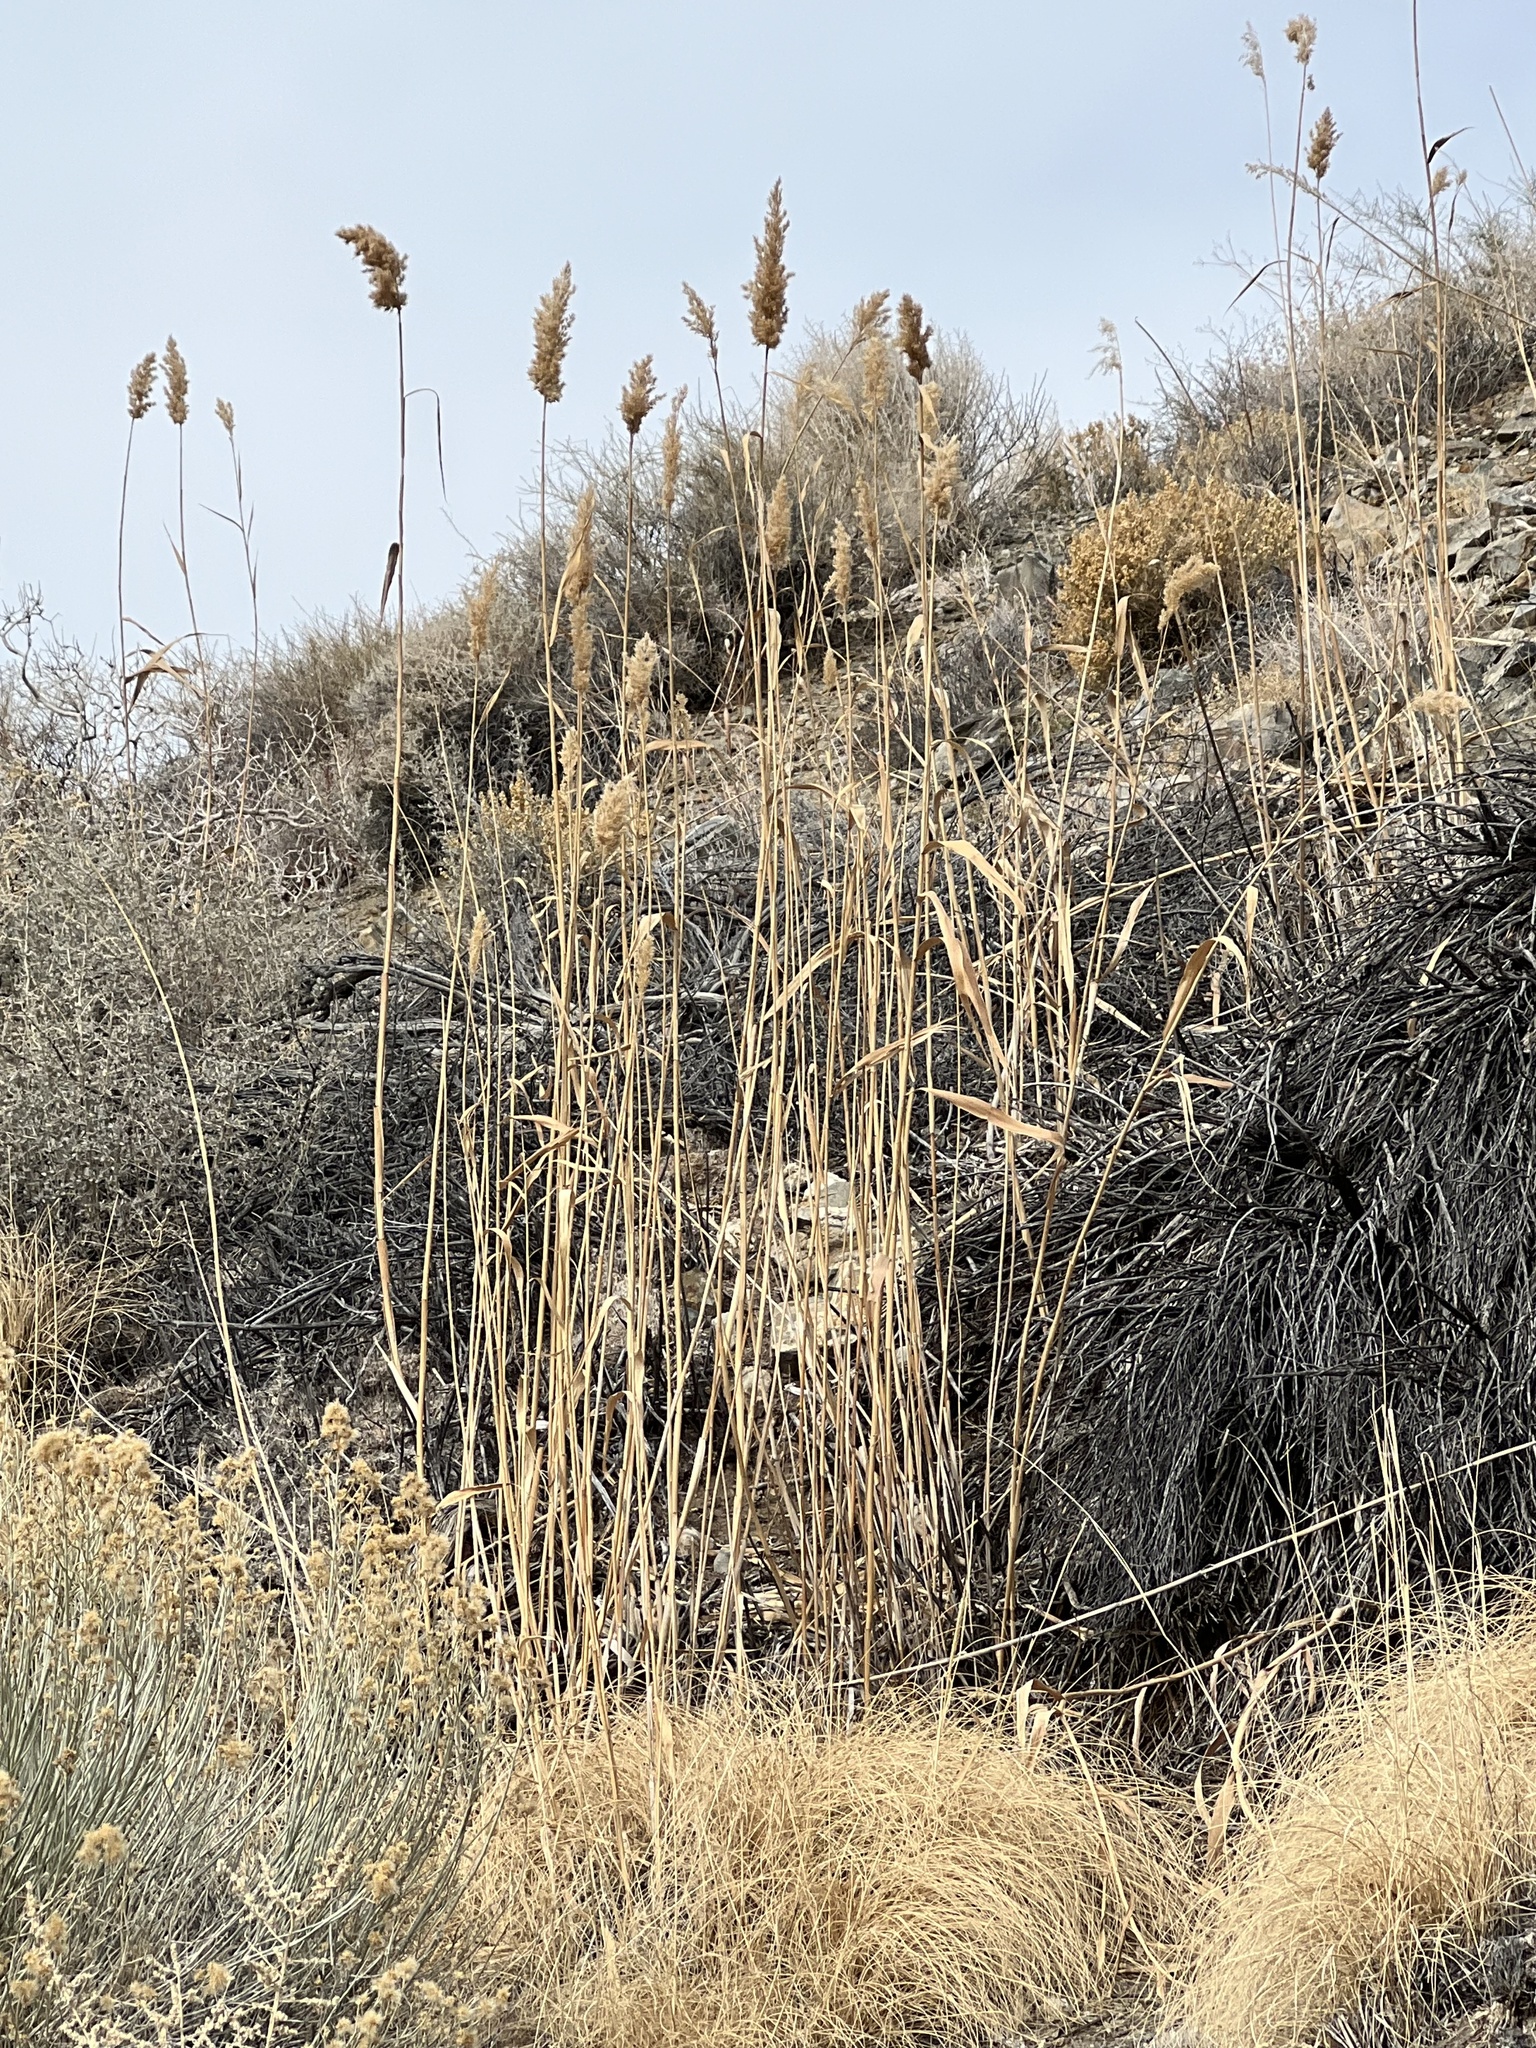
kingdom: Plantae
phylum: Tracheophyta
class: Liliopsida
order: Poales
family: Poaceae
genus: Phragmites
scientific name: Phragmites australis
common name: Common reed
